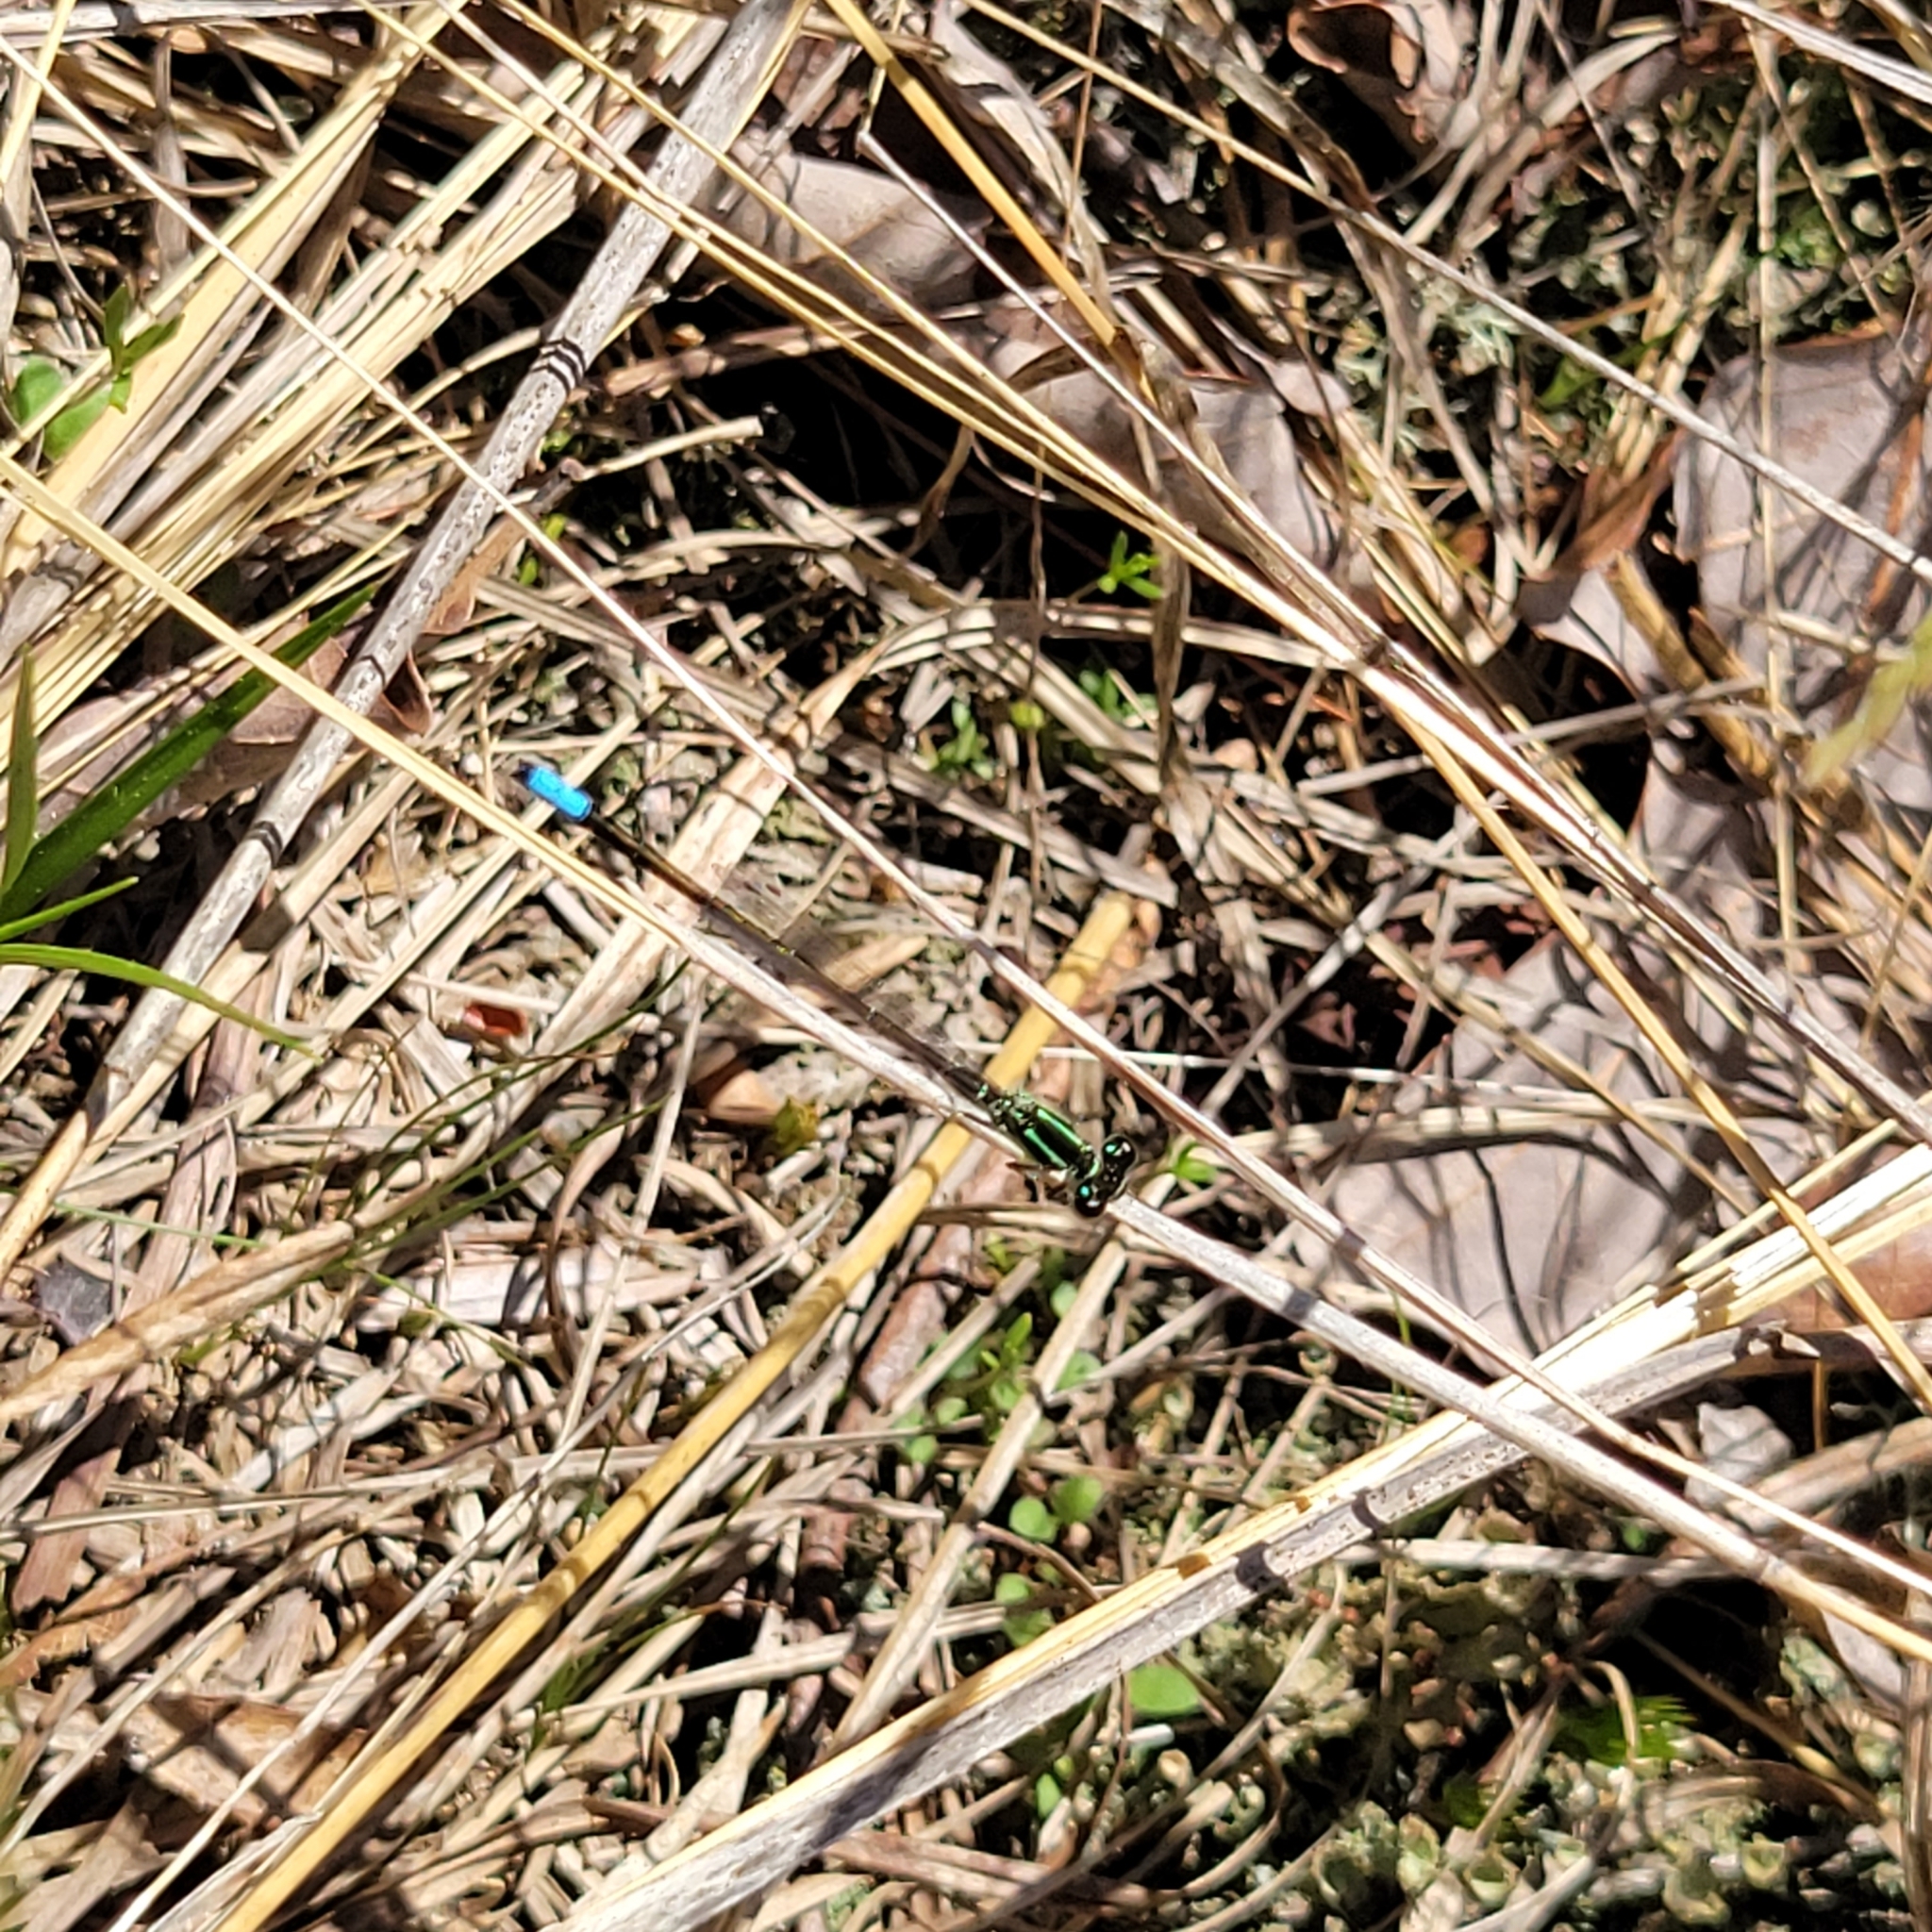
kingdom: Animalia
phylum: Arthropoda
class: Insecta
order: Odonata
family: Coenagrionidae
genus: Ischnura
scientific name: Ischnura verticalis
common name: Eastern forktail
